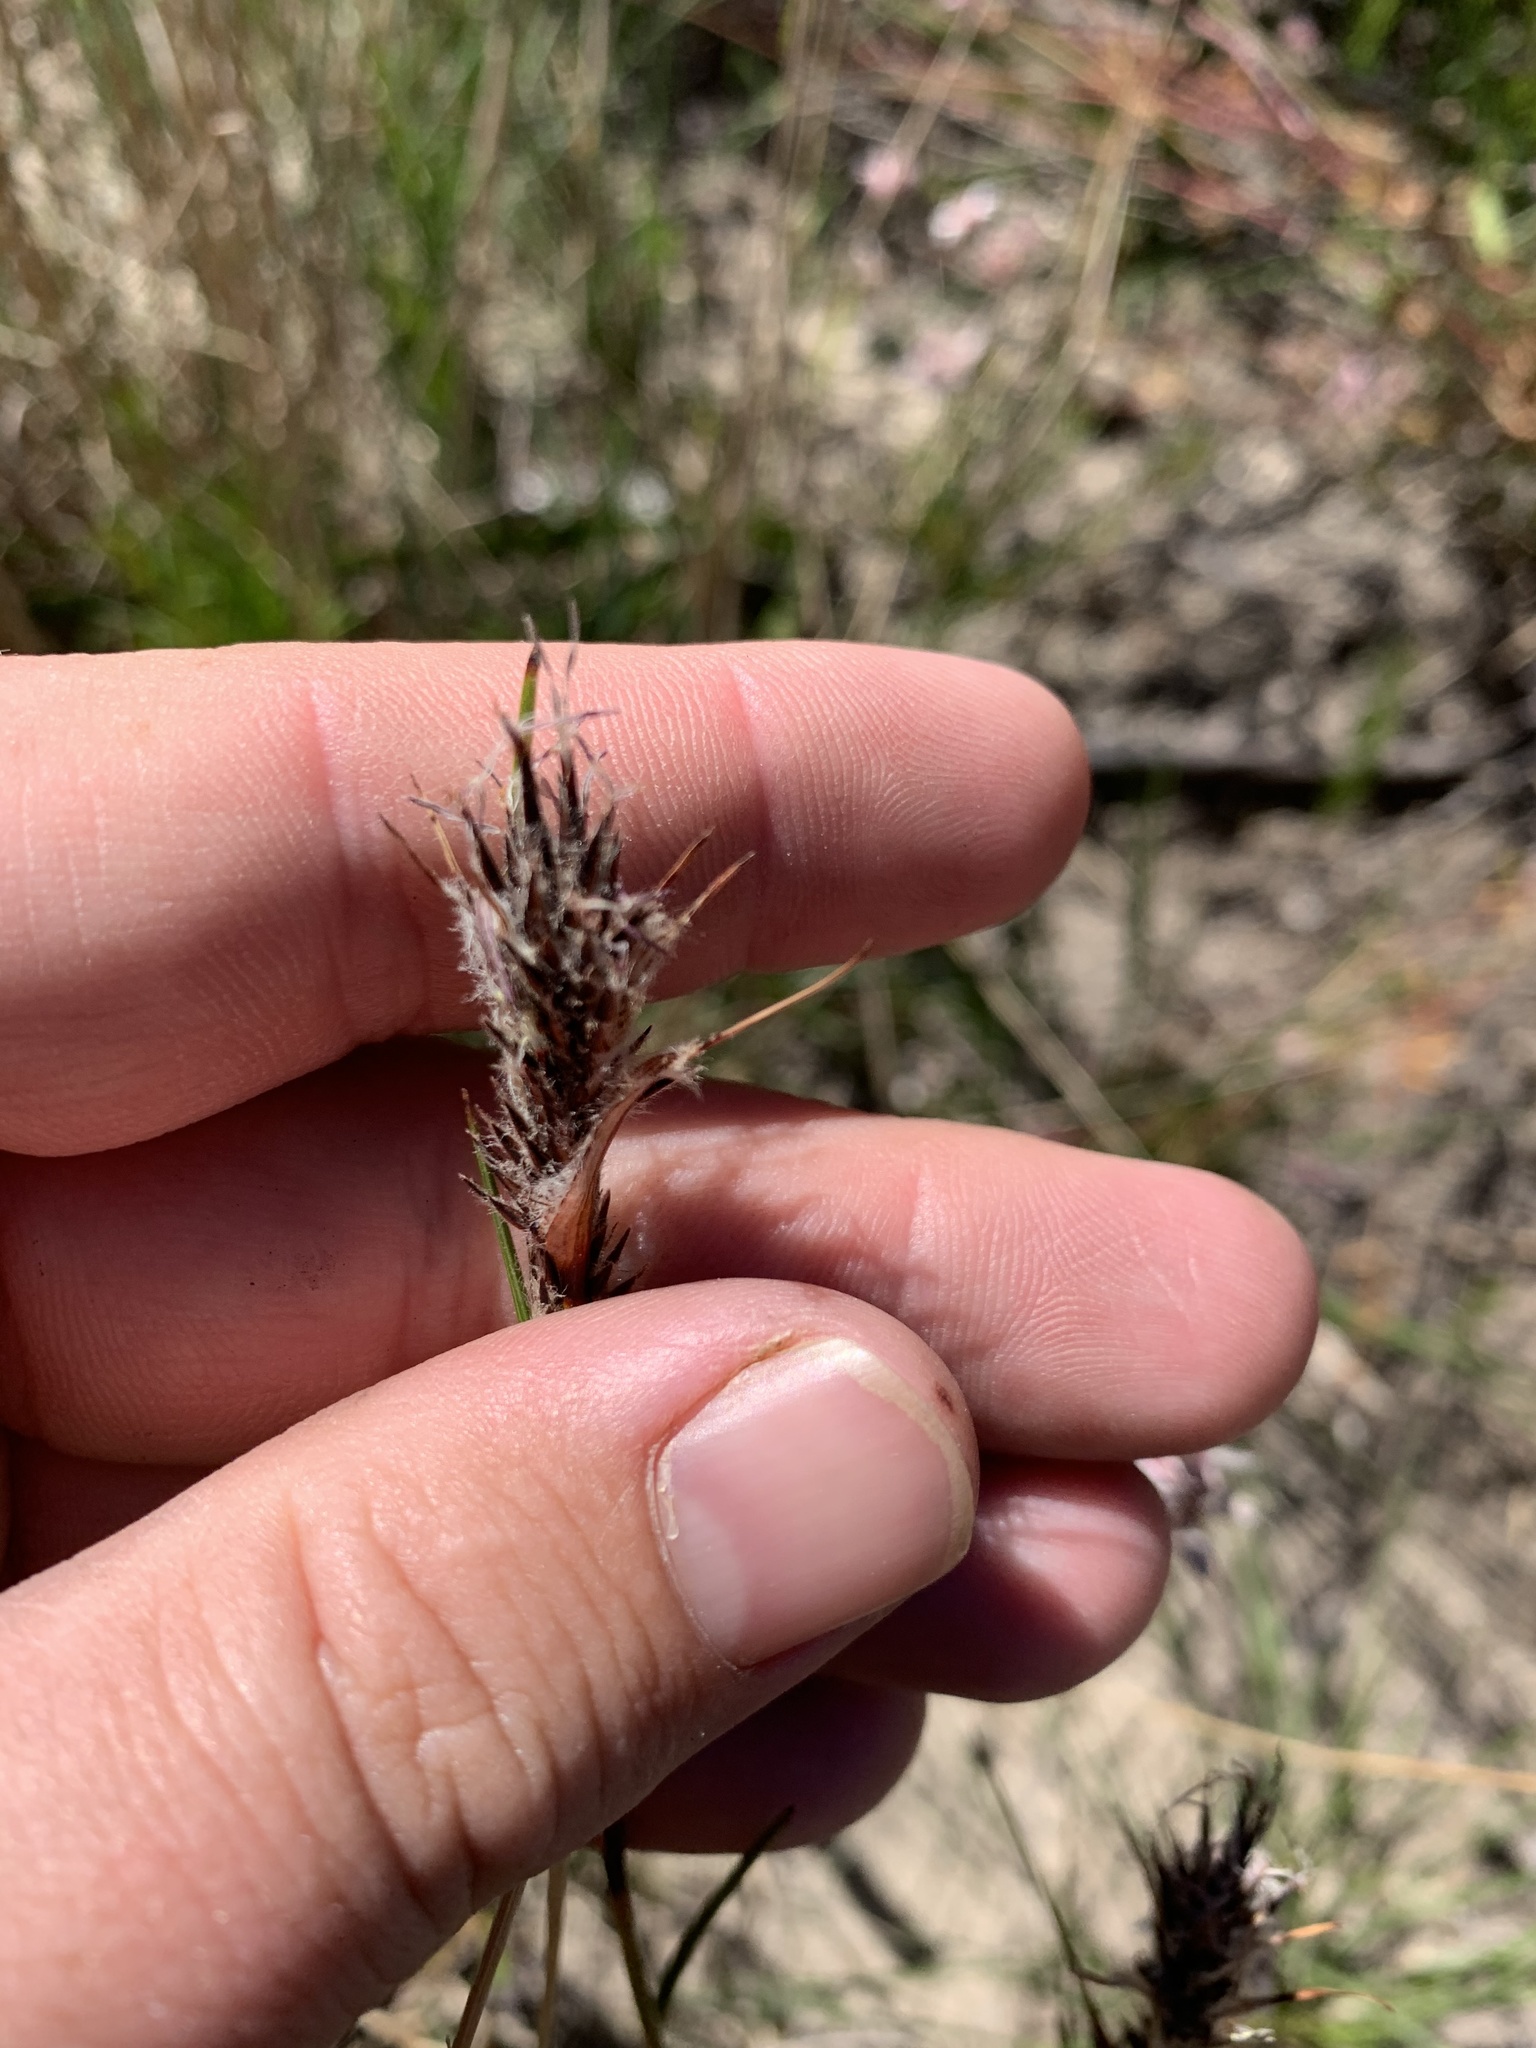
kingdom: Plantae
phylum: Tracheophyta
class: Liliopsida
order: Poales
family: Cyperaceae
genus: Schoenus
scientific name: Schoenus villosus
